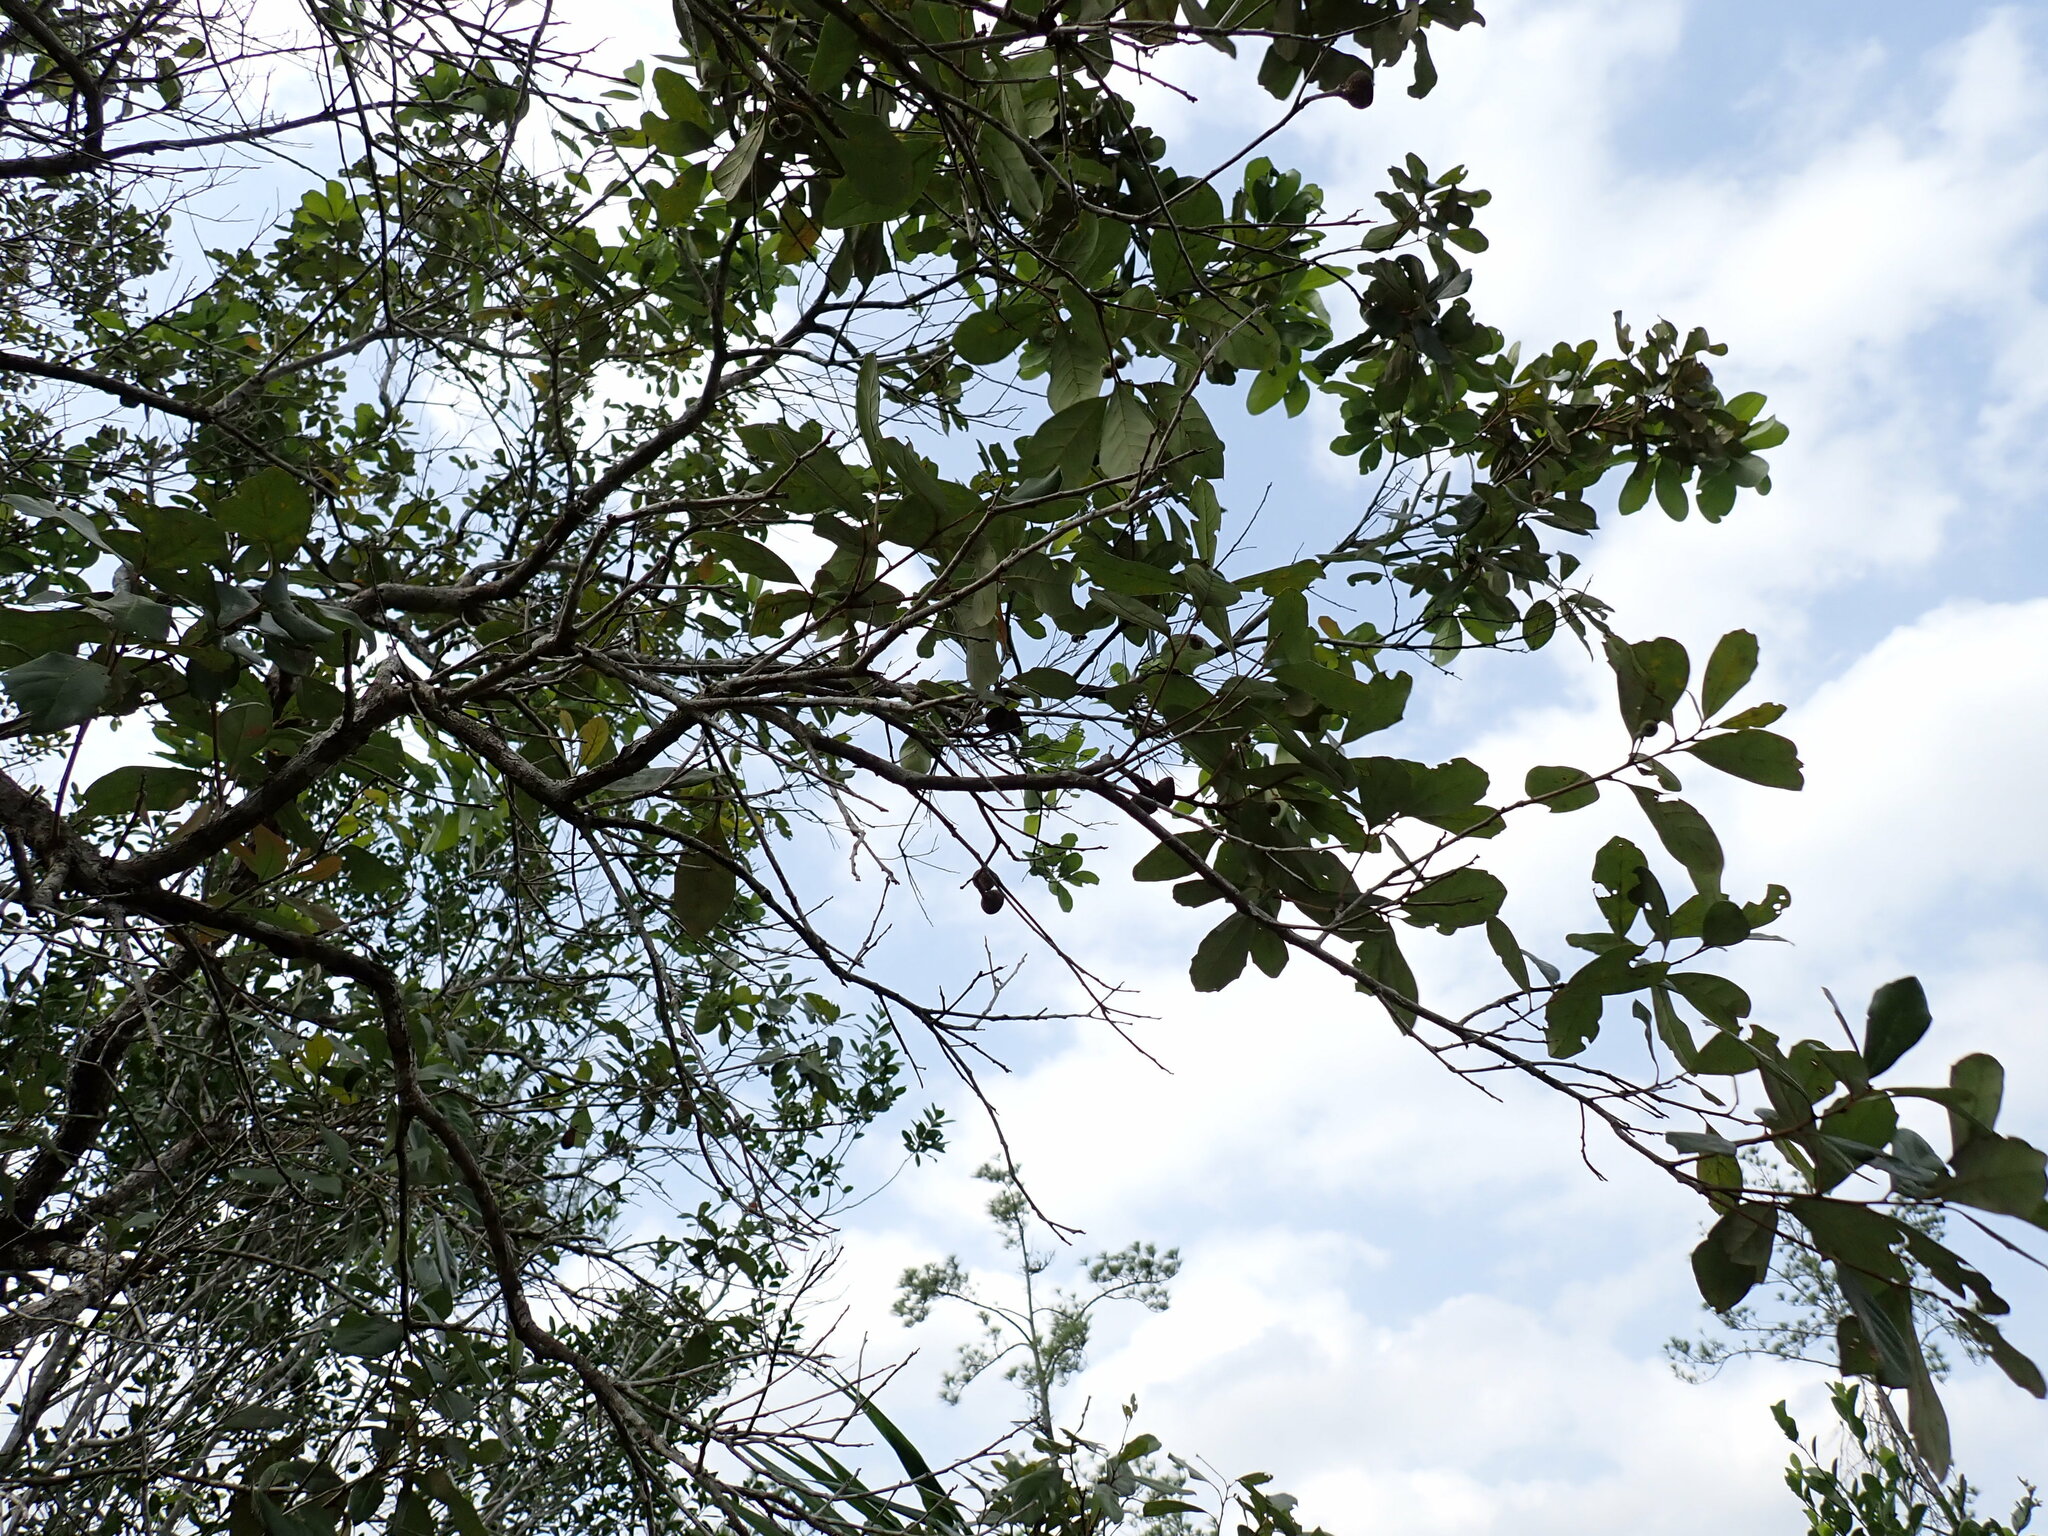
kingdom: Plantae
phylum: Tracheophyta
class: Magnoliopsida
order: Fagales
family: Fagaceae
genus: Quercus
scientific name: Quercus oleoides
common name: White oak
